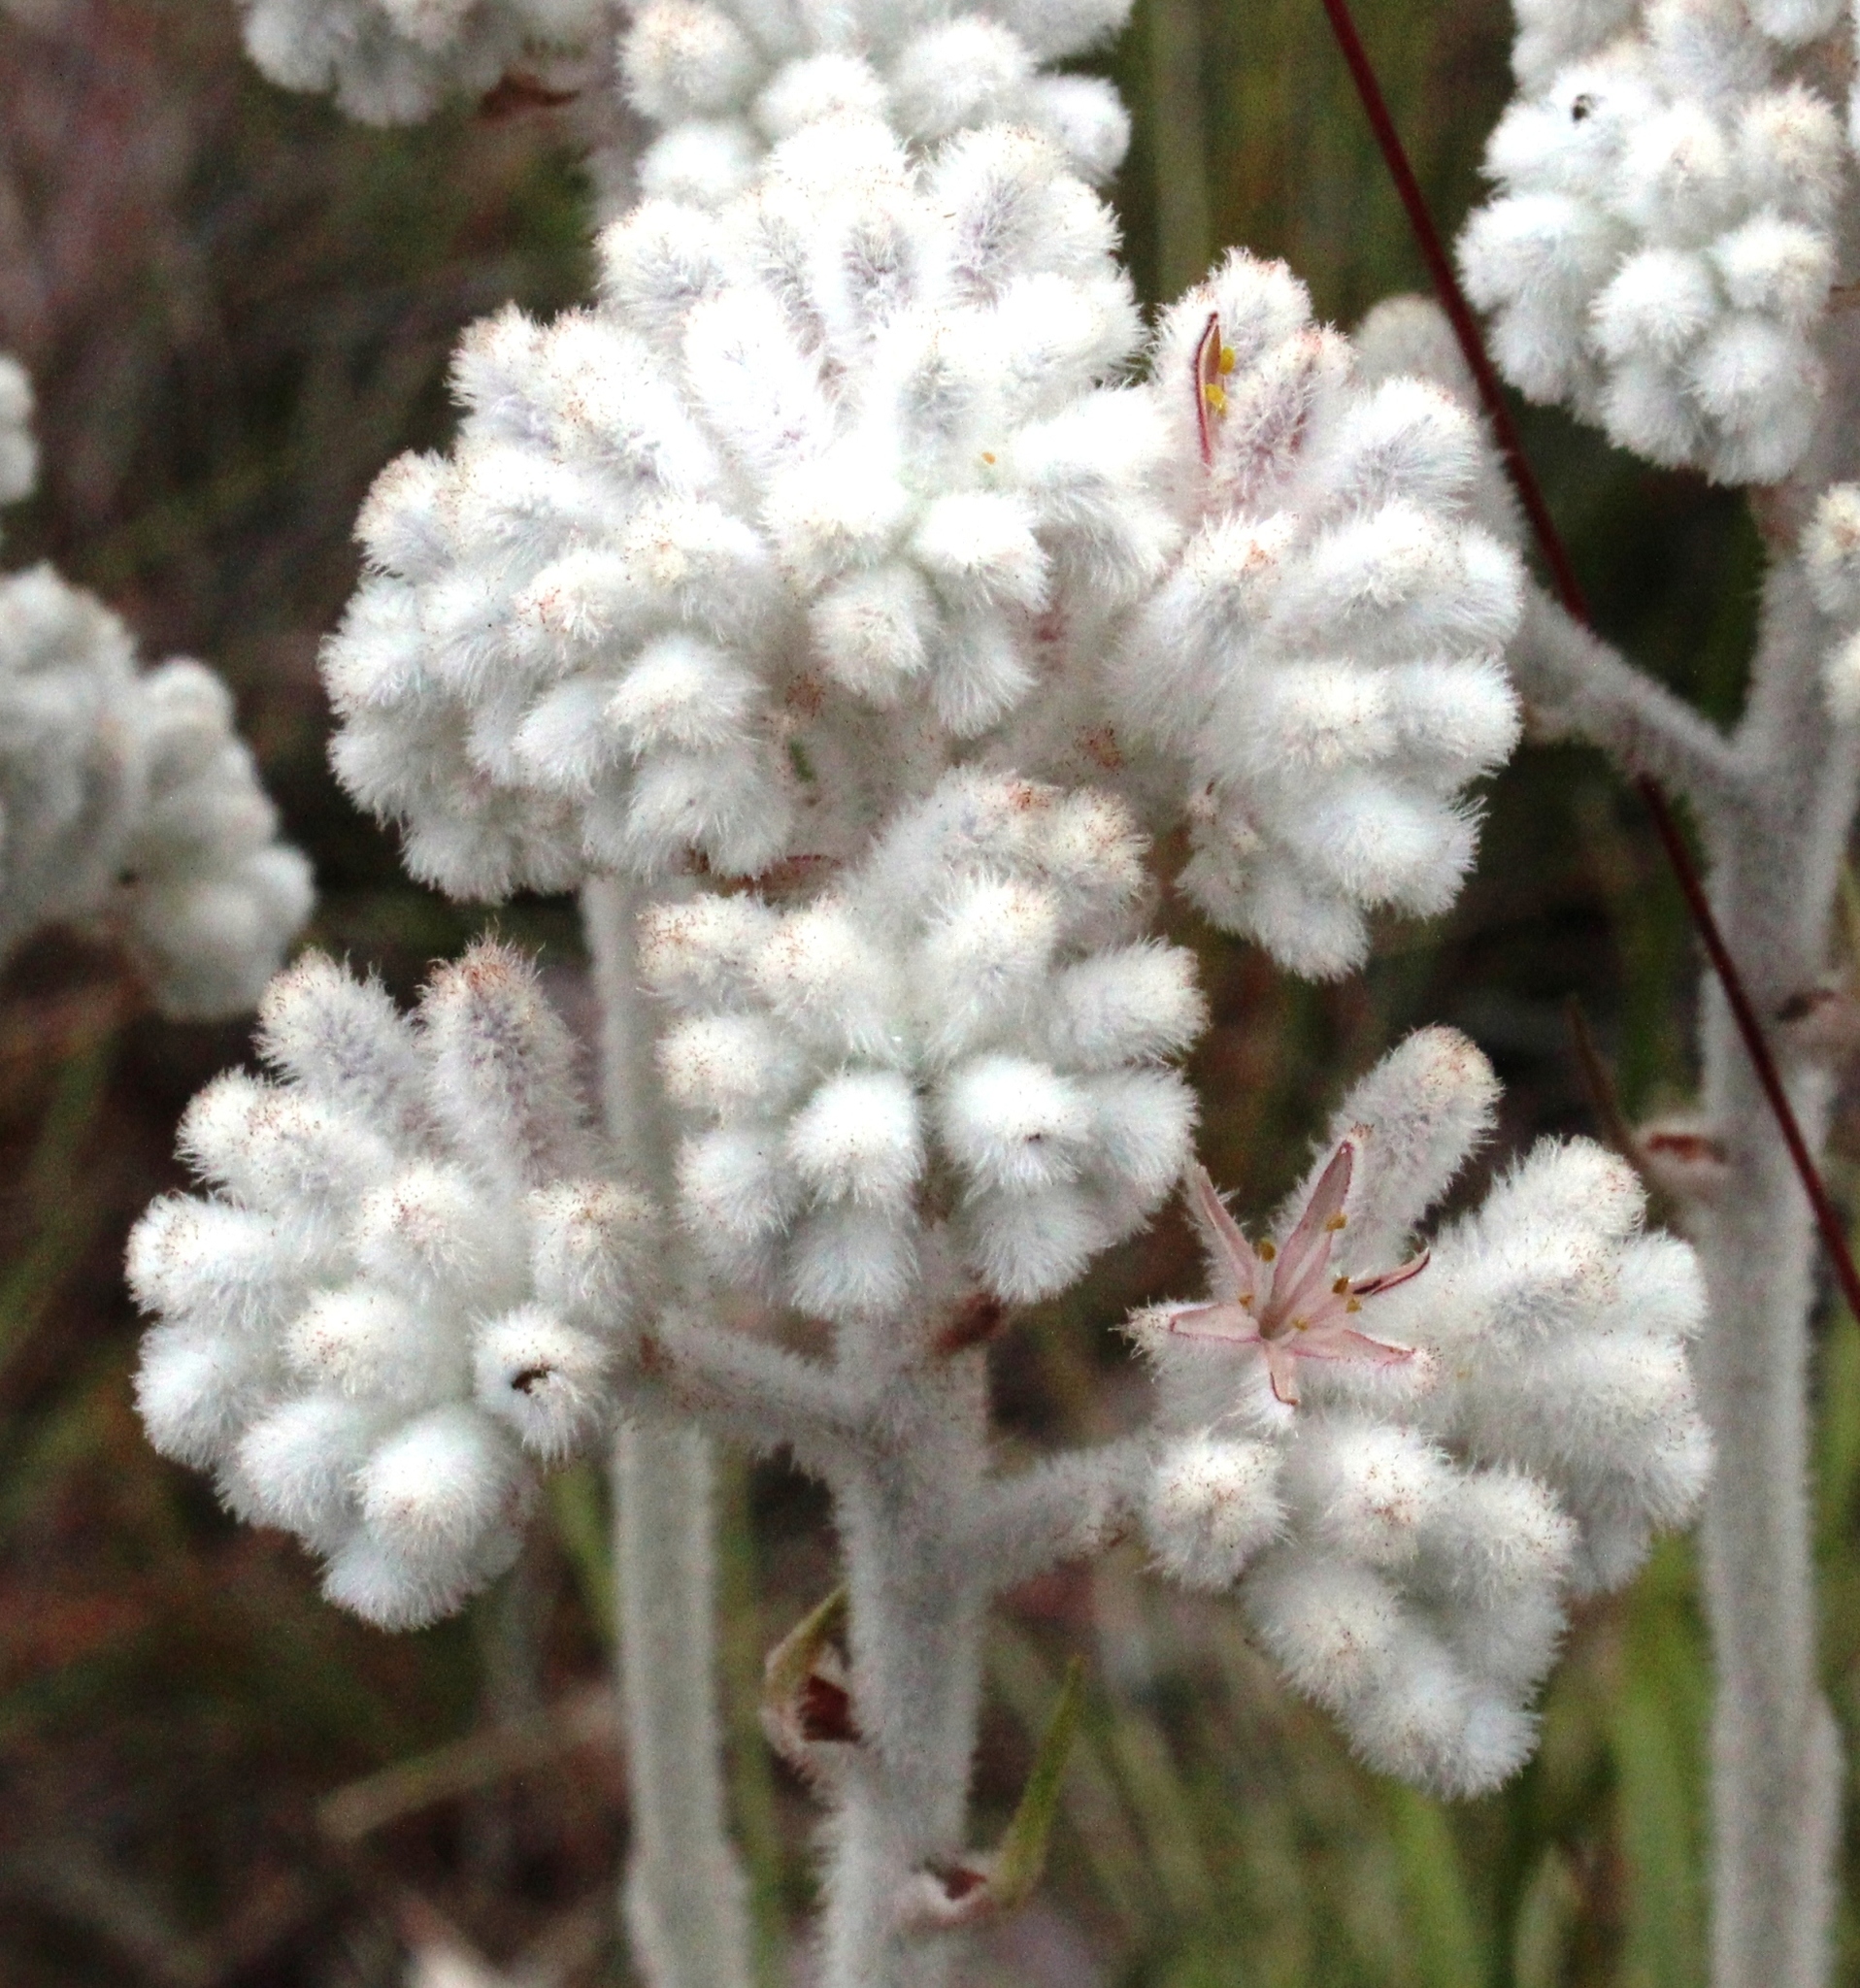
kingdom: Plantae
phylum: Tracheophyta
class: Liliopsida
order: Asparagales
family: Lanariaceae
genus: Lanaria
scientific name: Lanaria lanata
